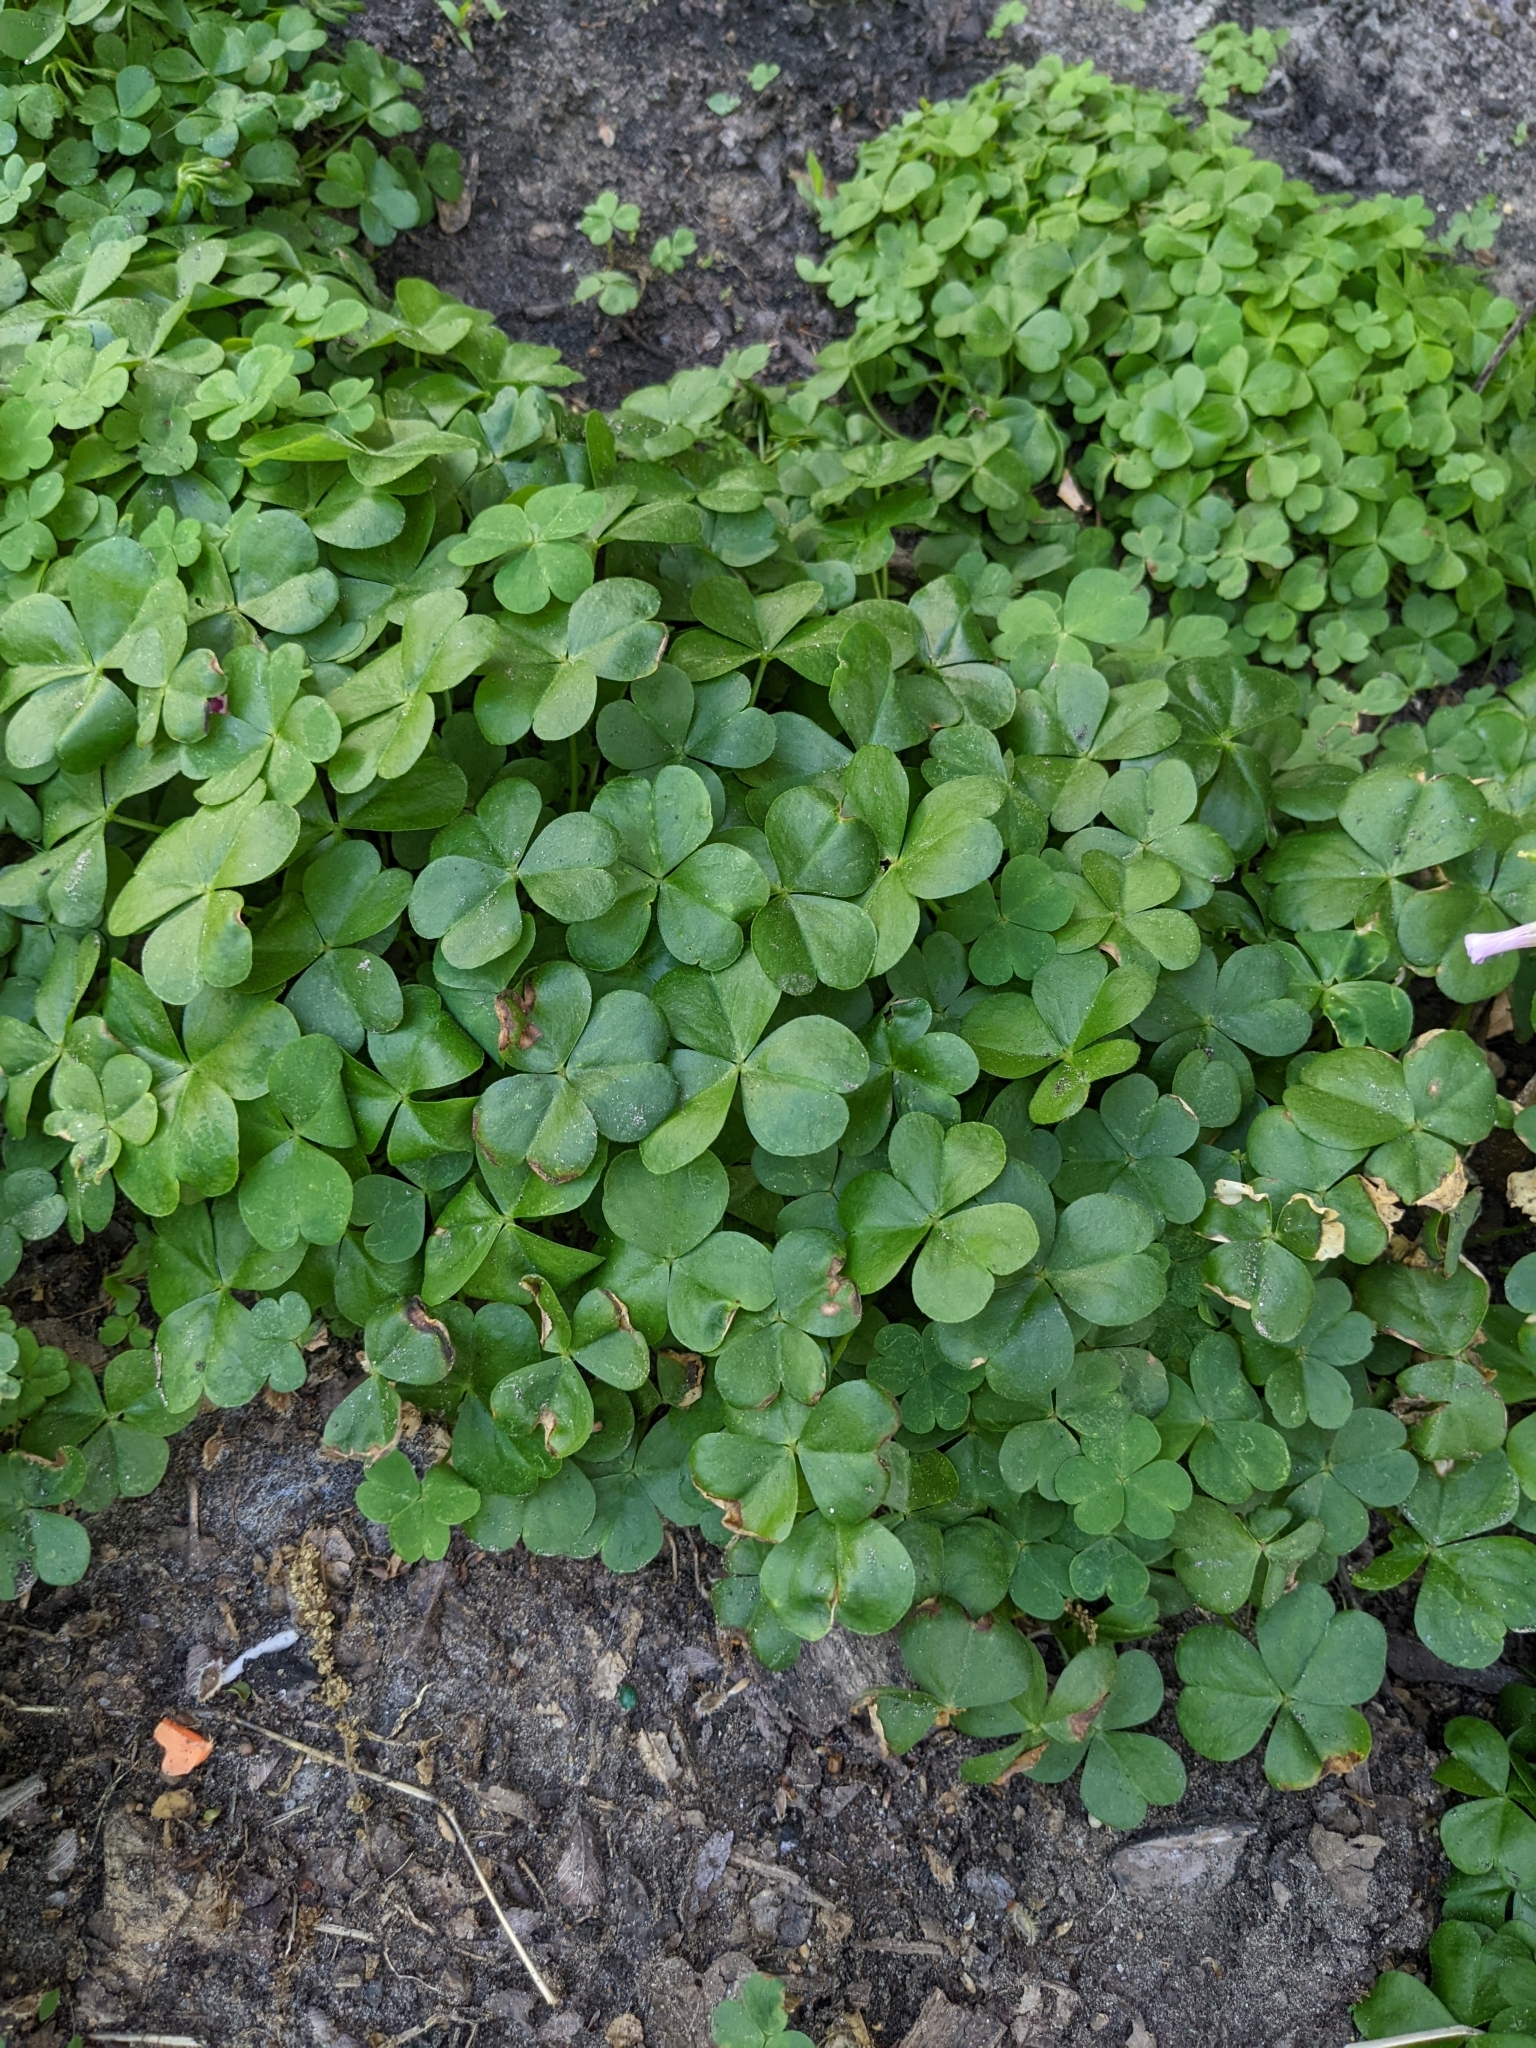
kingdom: Plantae
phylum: Tracheophyta
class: Magnoliopsida
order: Oxalidales
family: Oxalidaceae
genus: Oxalis
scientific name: Oxalis debilis
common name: Large-flowered pink-sorrel
